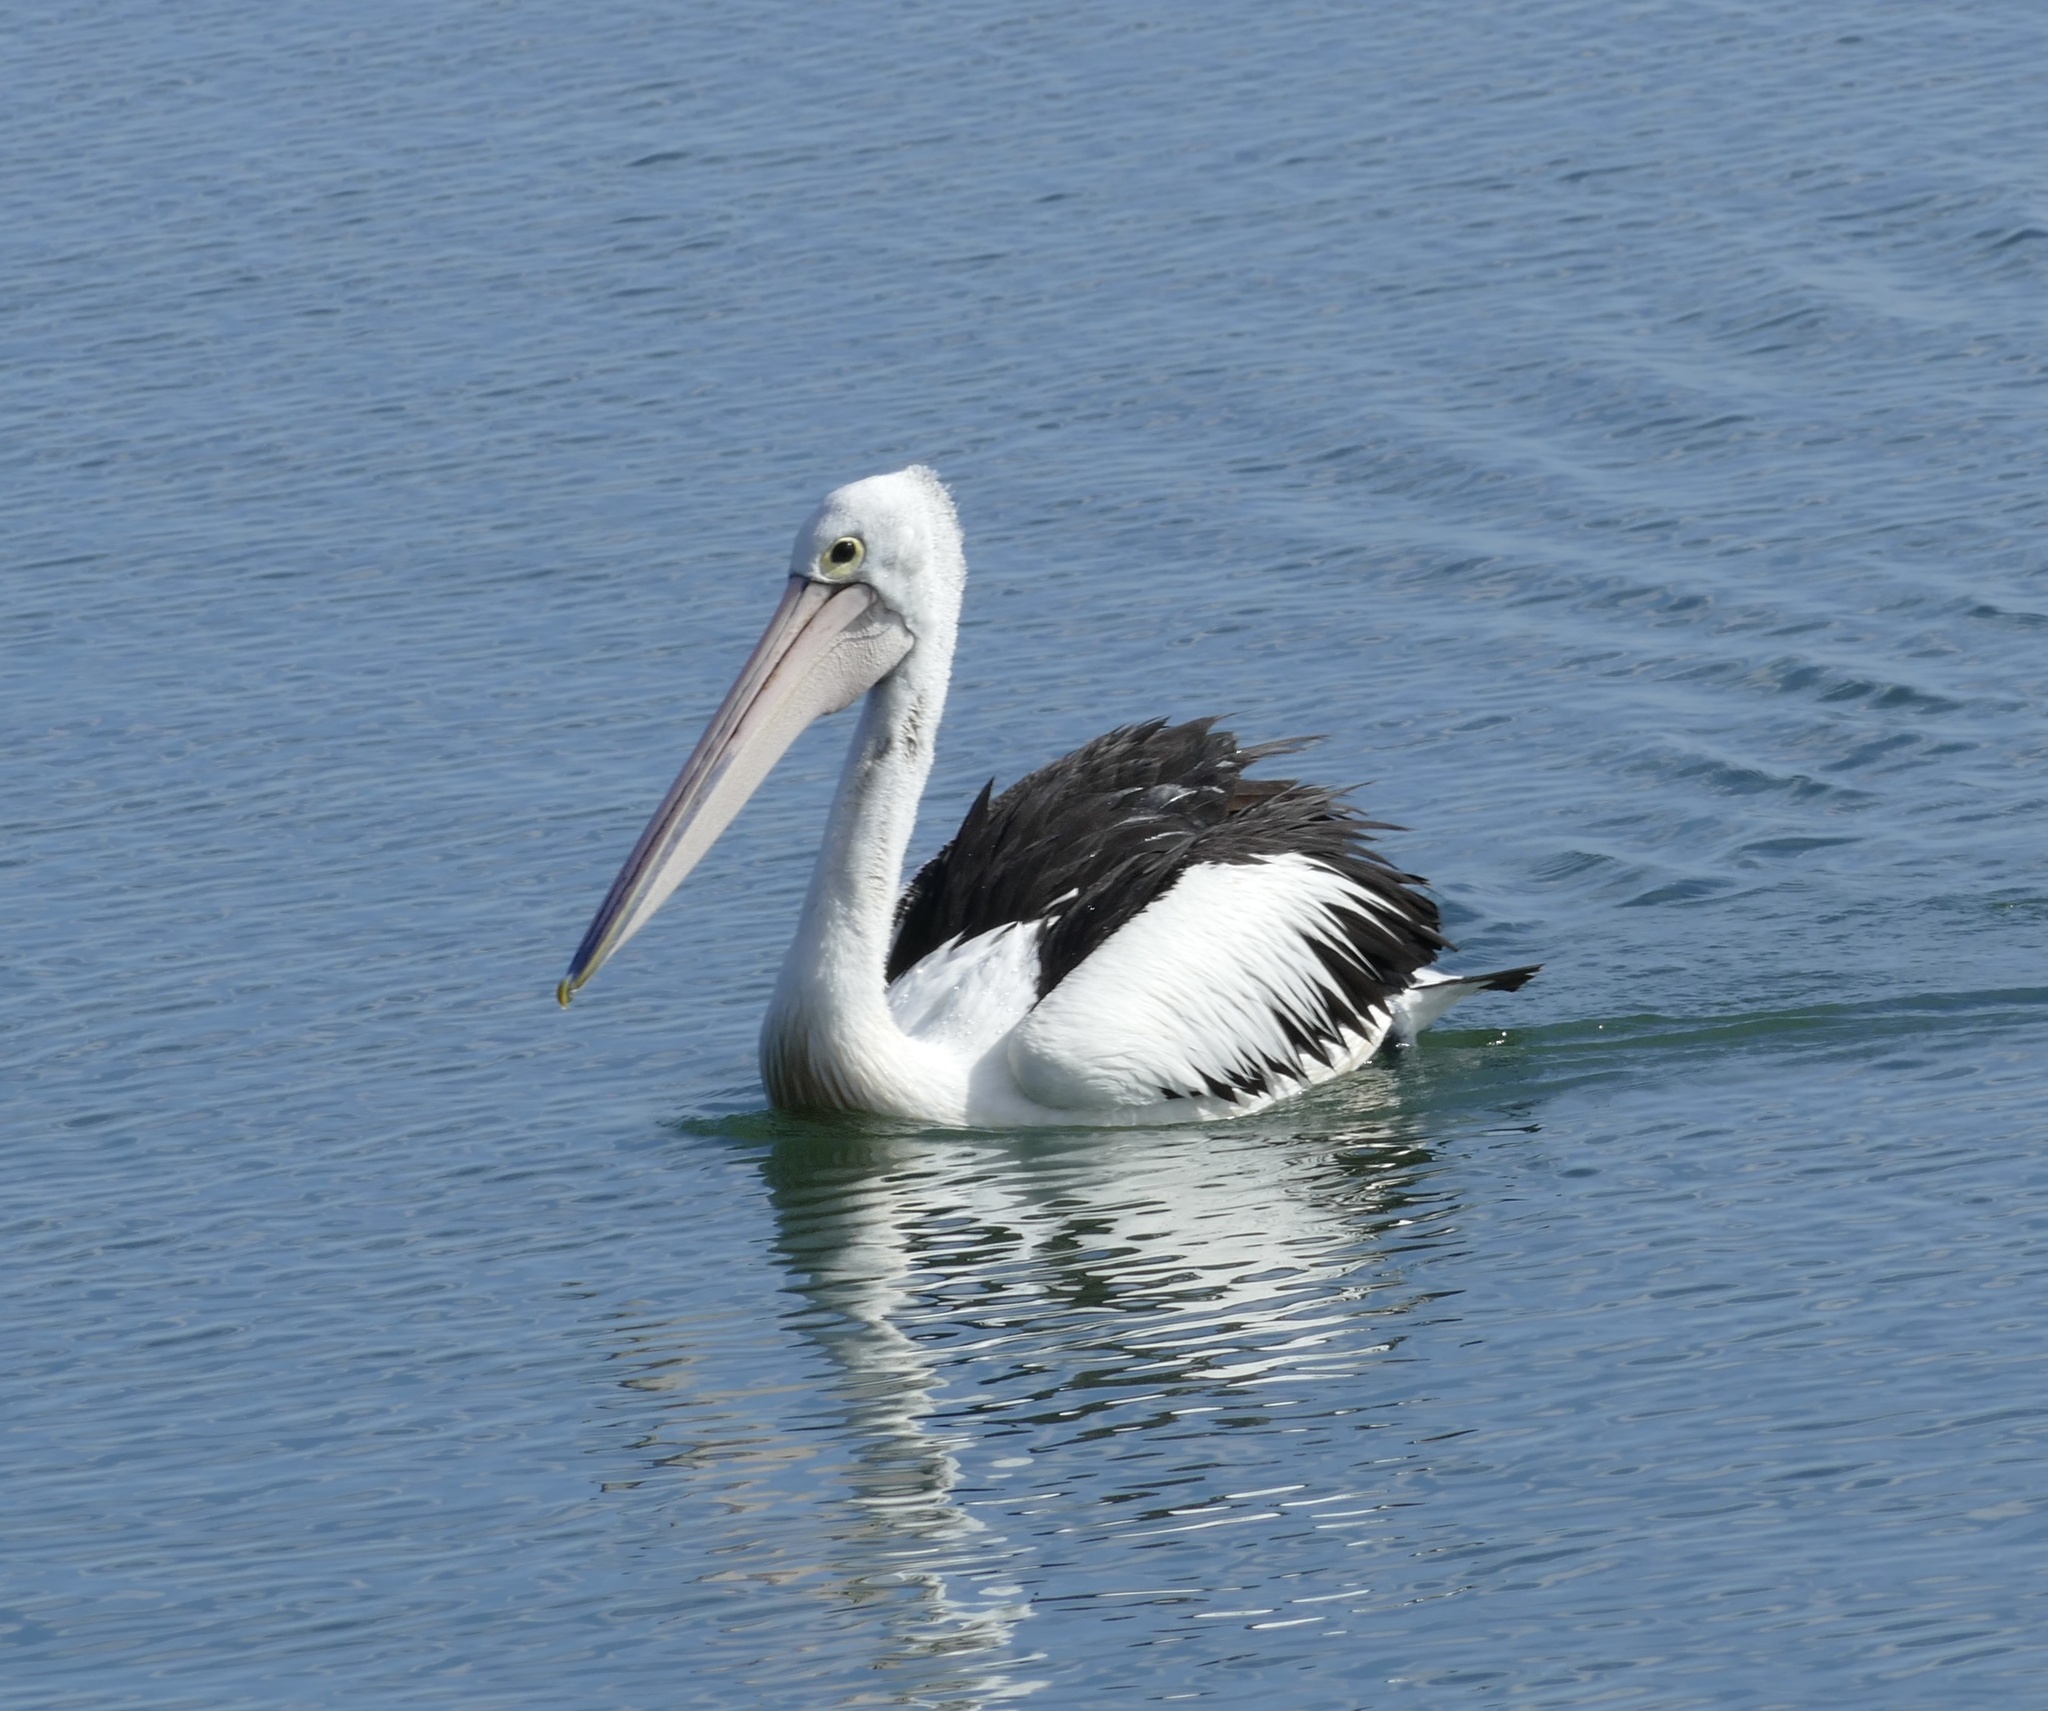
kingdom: Animalia
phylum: Chordata
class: Aves
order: Pelecaniformes
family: Pelecanidae
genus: Pelecanus
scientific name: Pelecanus conspicillatus
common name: Australian pelican
